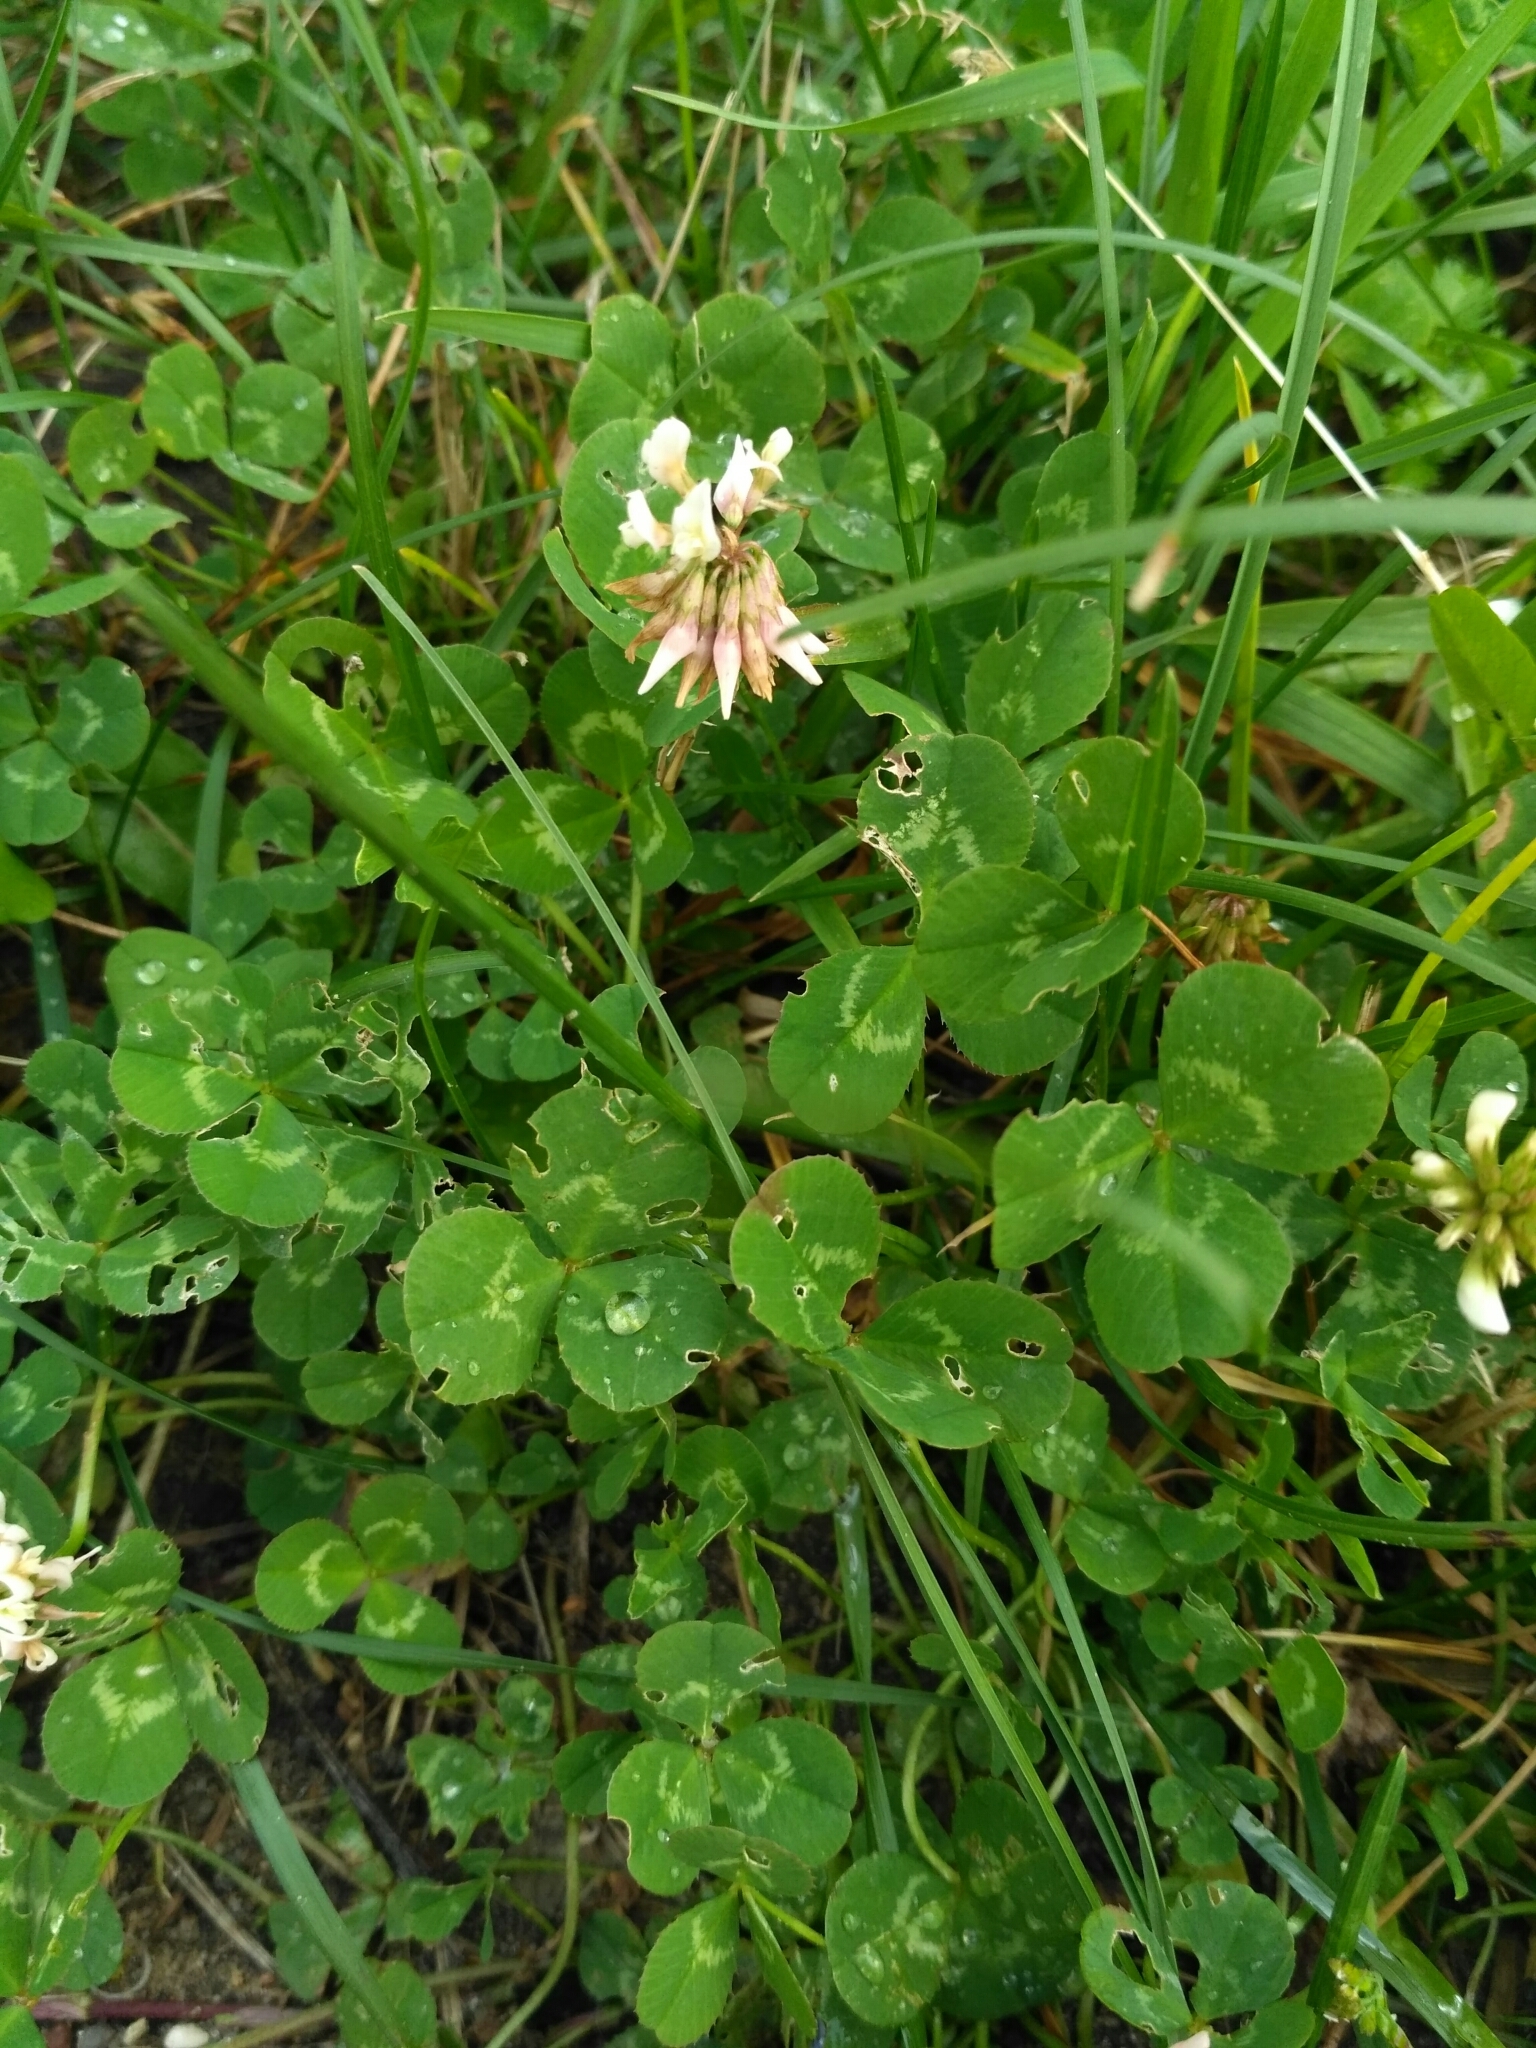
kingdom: Plantae
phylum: Tracheophyta
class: Magnoliopsida
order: Fabales
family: Fabaceae
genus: Trifolium
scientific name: Trifolium repens
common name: White clover
